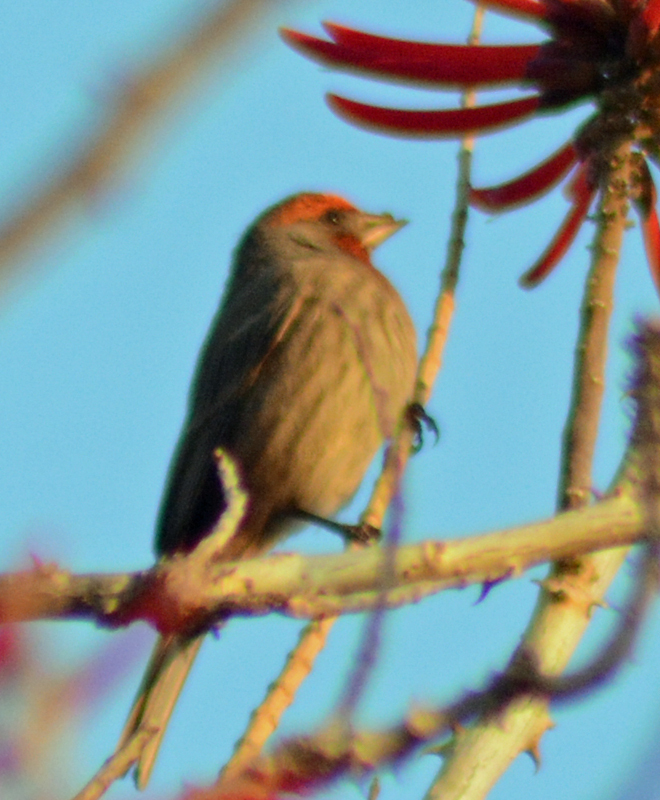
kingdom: Animalia
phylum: Chordata
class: Aves
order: Passeriformes
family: Fringillidae
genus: Haemorhous
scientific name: Haemorhous mexicanus
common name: House finch
